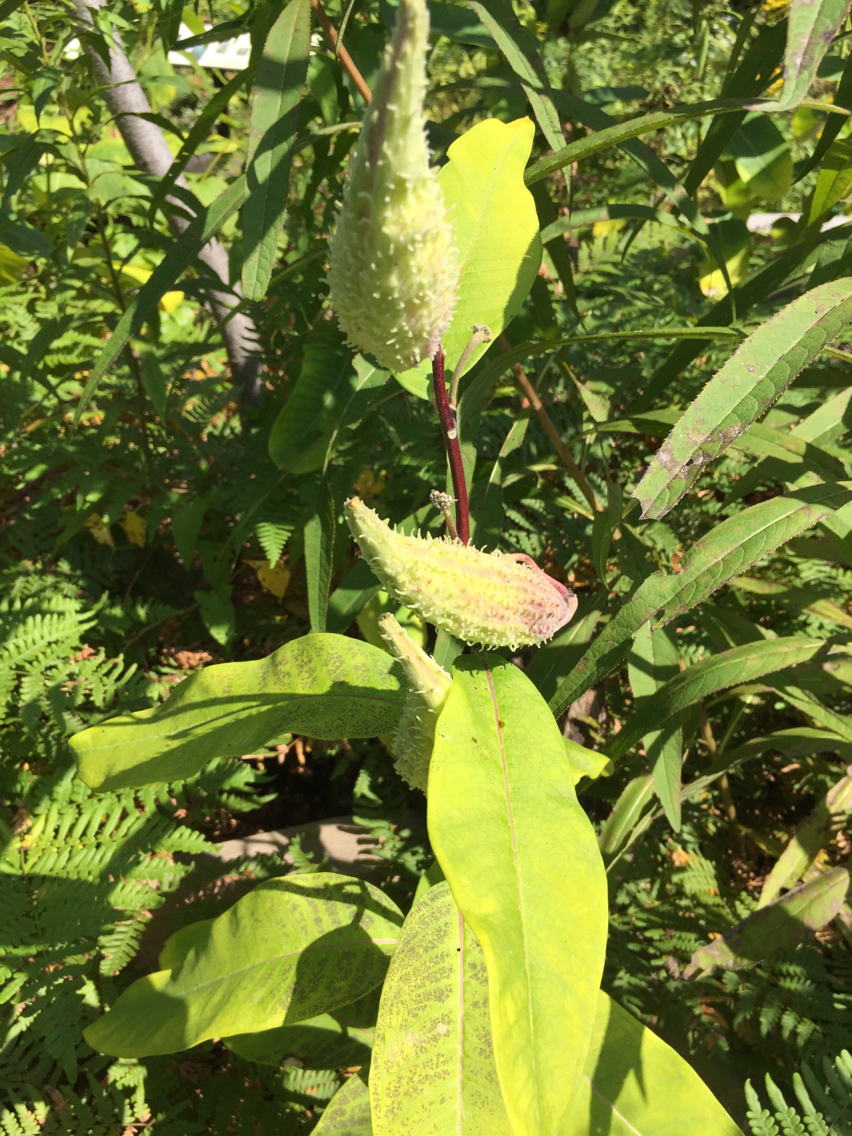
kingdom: Plantae
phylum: Tracheophyta
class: Magnoliopsida
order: Gentianales
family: Apocynaceae
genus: Asclepias
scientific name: Asclepias syriaca
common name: Common milkweed
